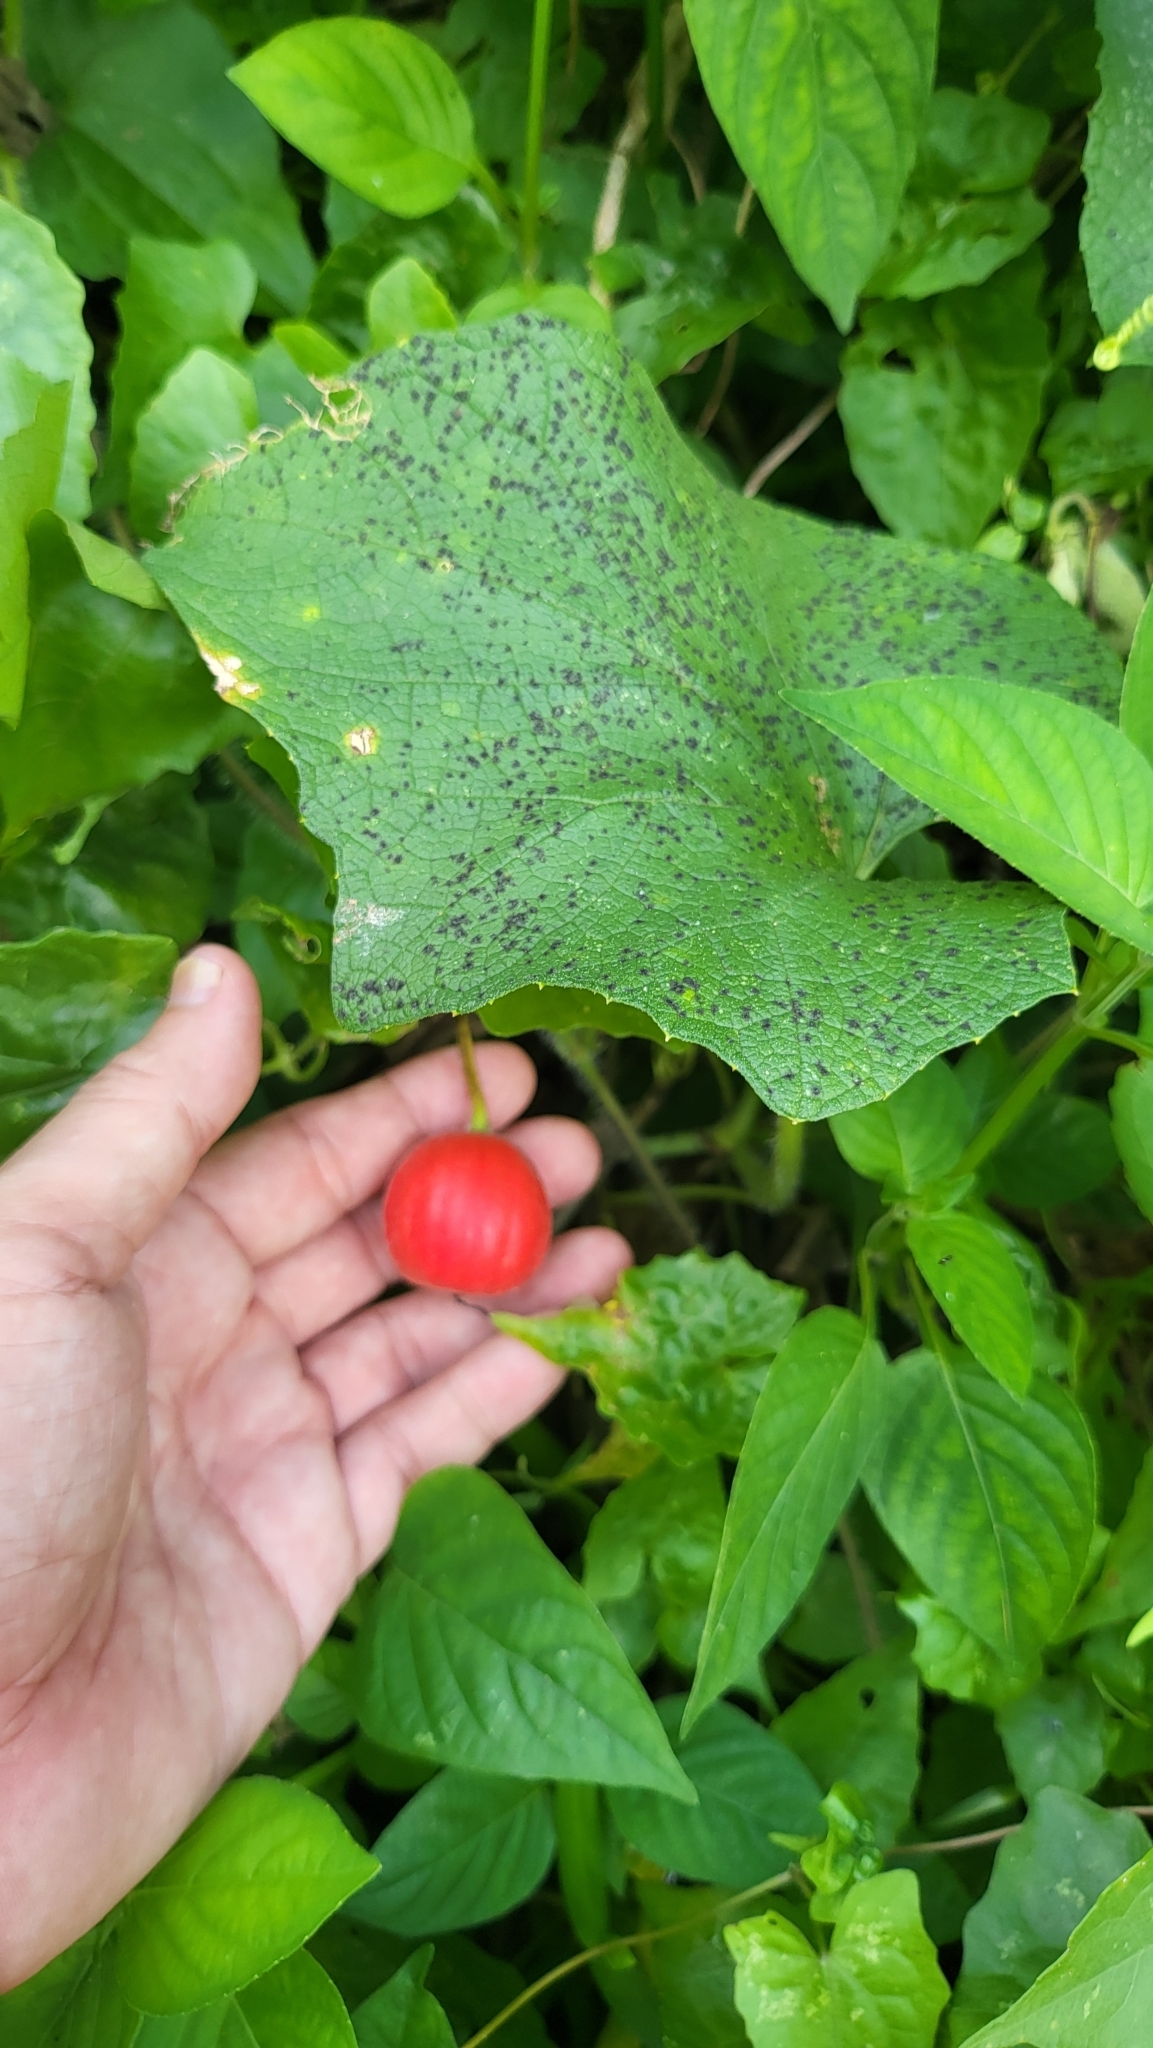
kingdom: Plantae
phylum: Tracheophyta
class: Magnoliopsida
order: Cucurbitales
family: Cucurbitaceae
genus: Trichosanthes
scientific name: Trichosanthes scabra
